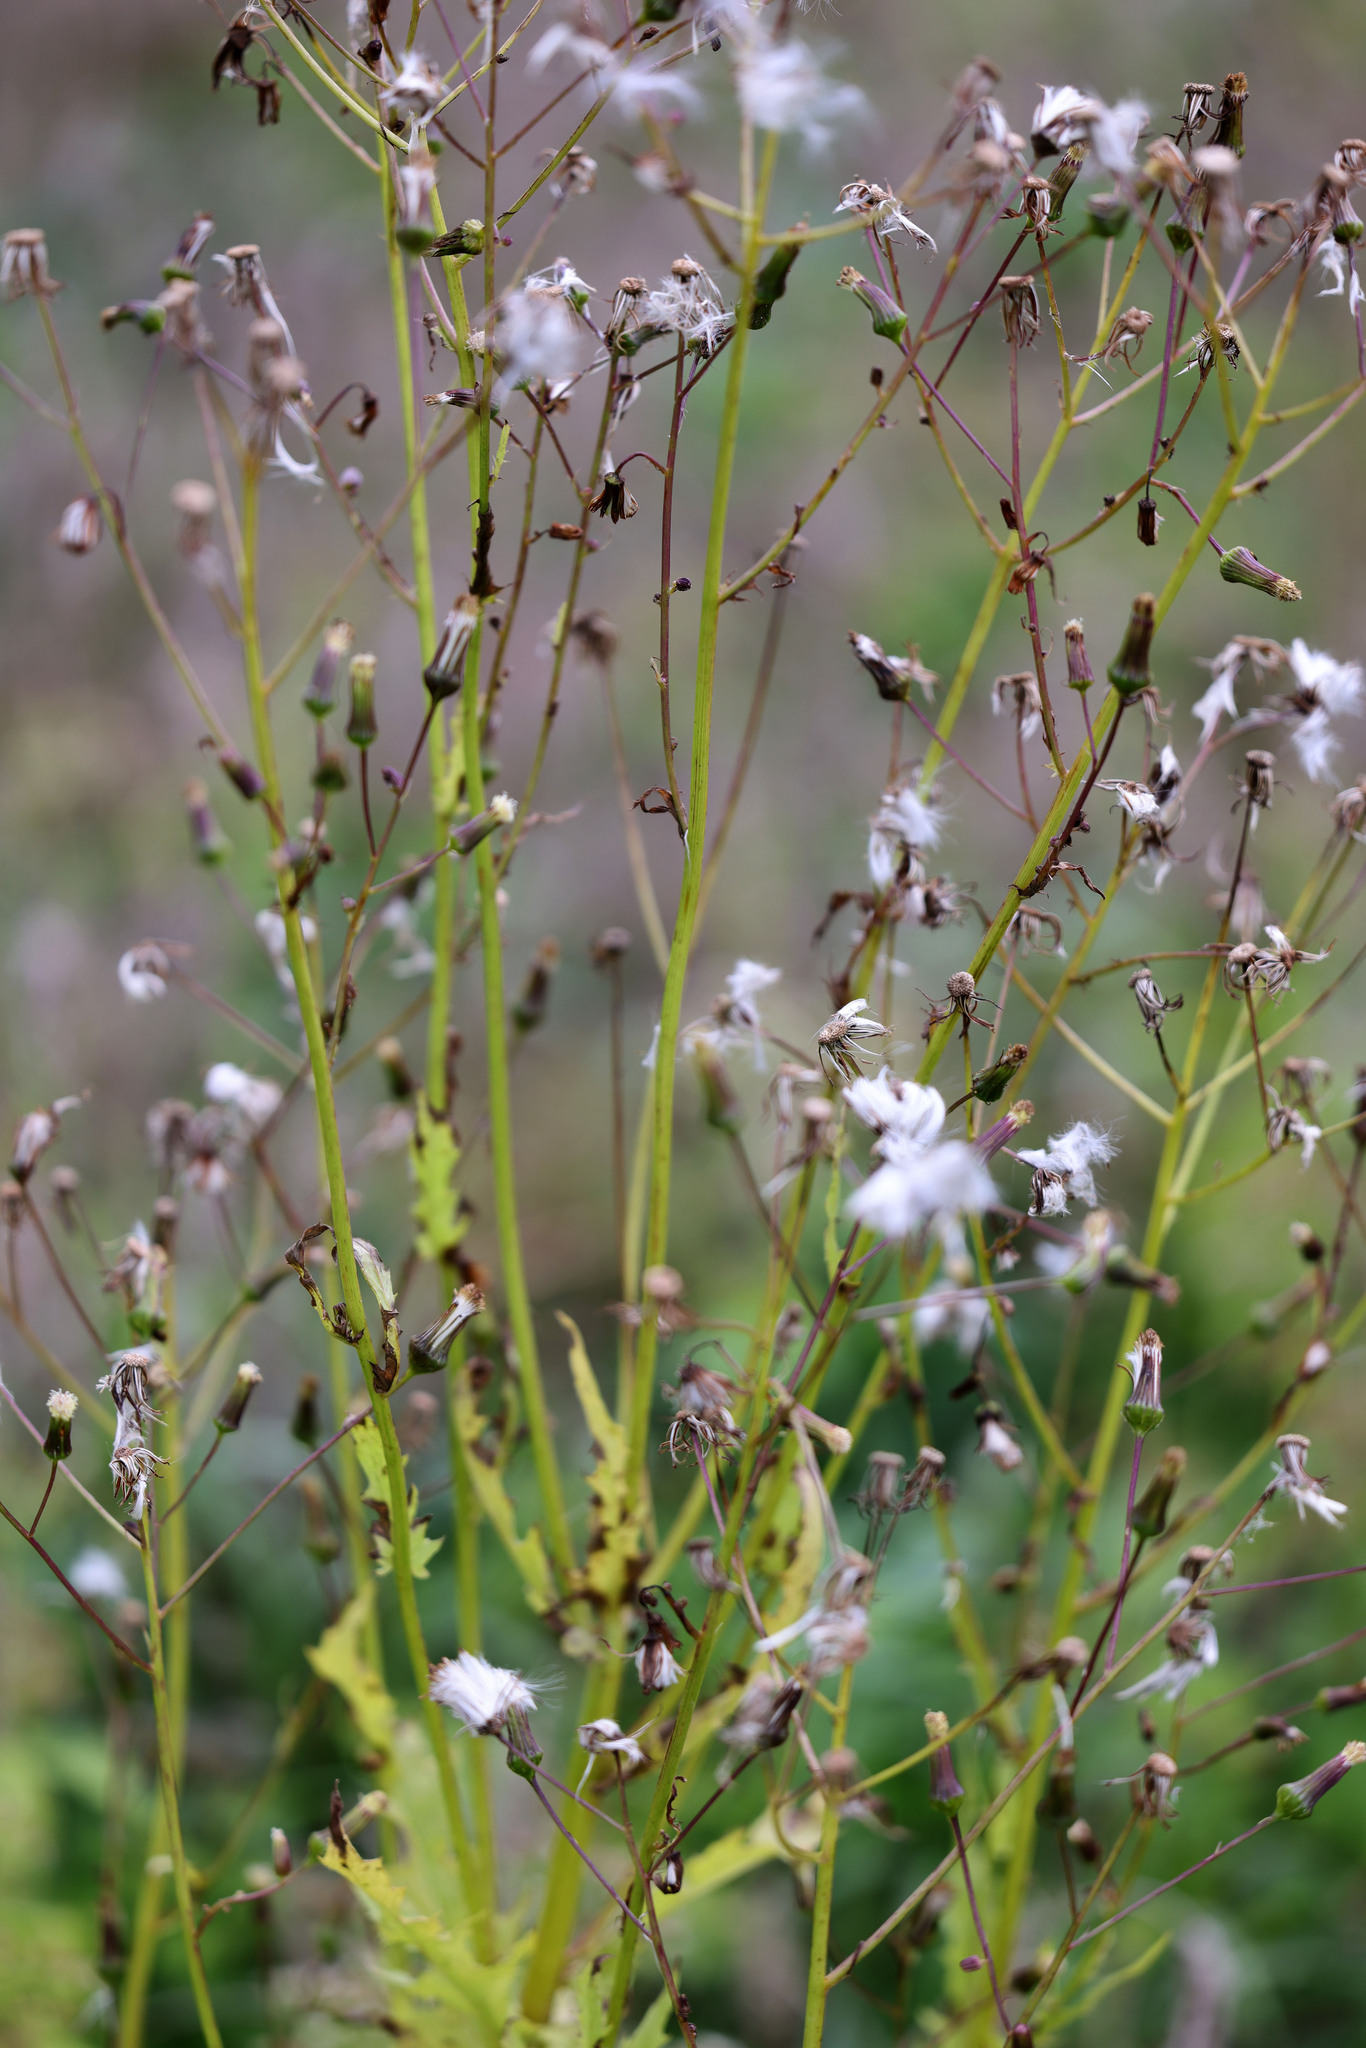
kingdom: Plantae
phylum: Tracheophyta
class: Magnoliopsida
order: Asterales
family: Asteraceae
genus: Erechtites
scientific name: Erechtites hieraciifolius
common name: American burnweed
